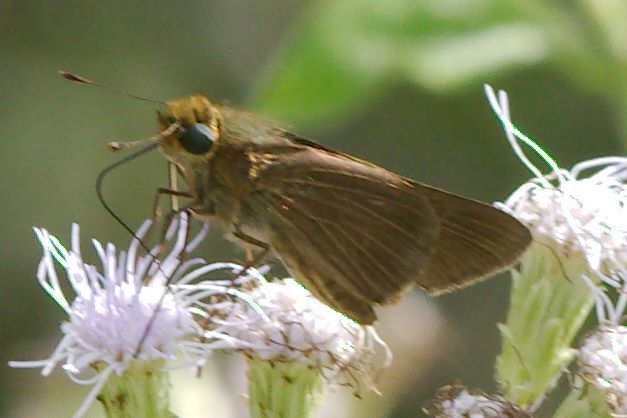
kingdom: Animalia
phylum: Arthropoda
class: Insecta
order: Lepidoptera
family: Hesperiidae
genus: Panoquina
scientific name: Panoquina ocola
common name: Ocola skipper
